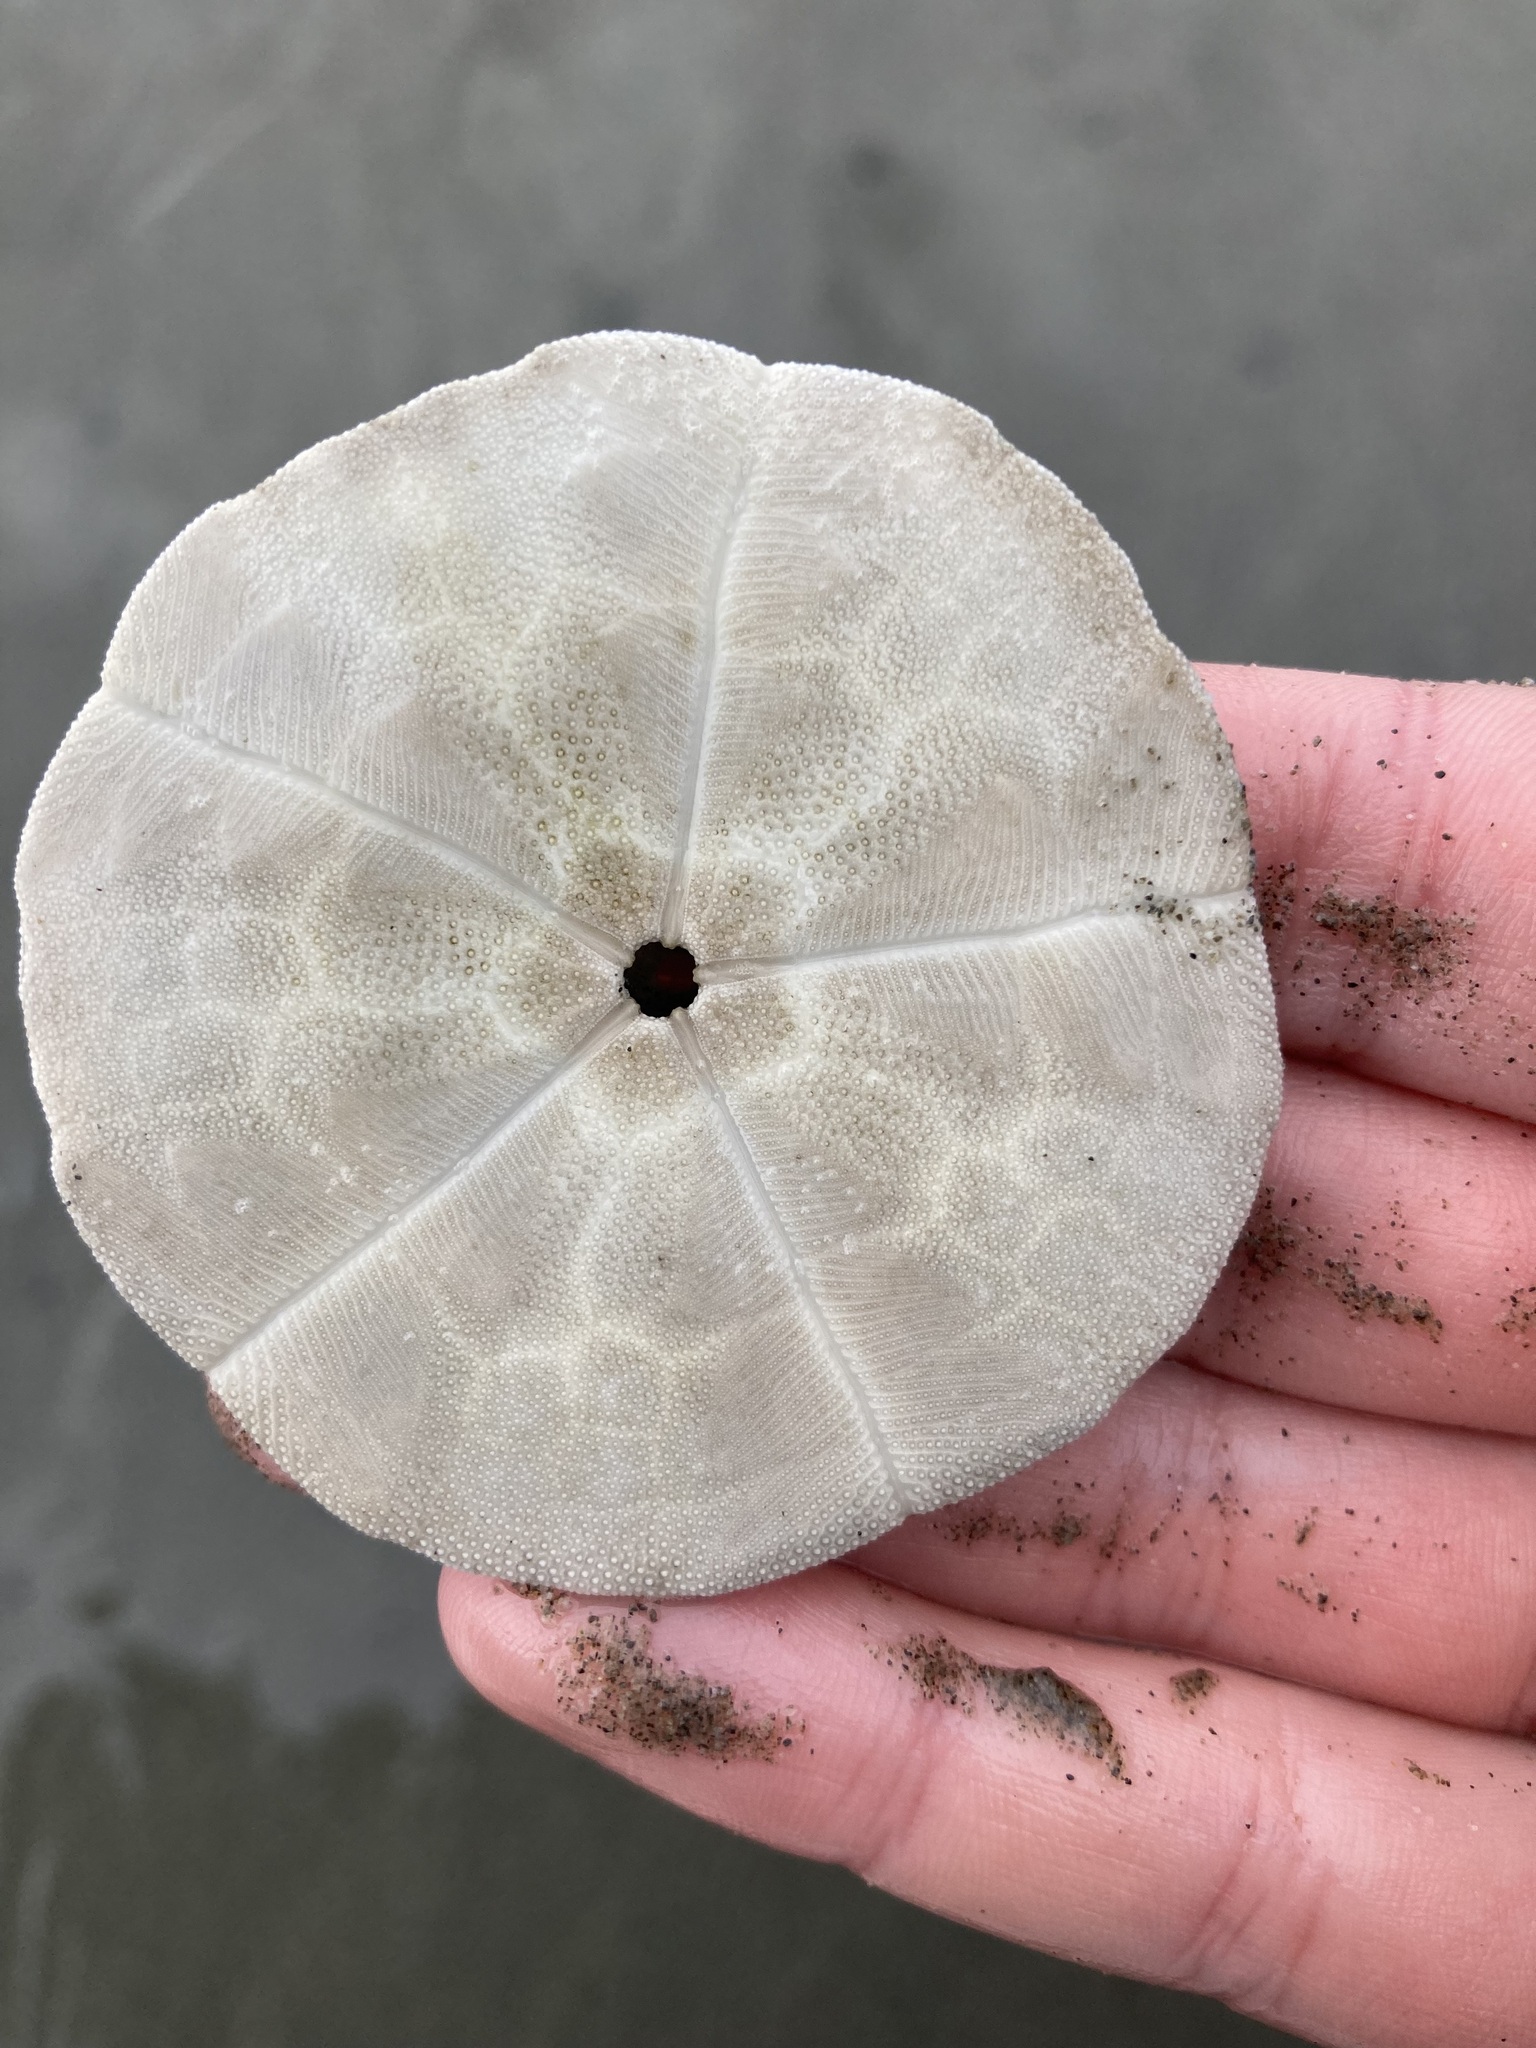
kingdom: Animalia
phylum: Echinodermata
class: Echinoidea
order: Clypeasteroida
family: Clypeasteridae
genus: Fellaster
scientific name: Fellaster zelandiae
